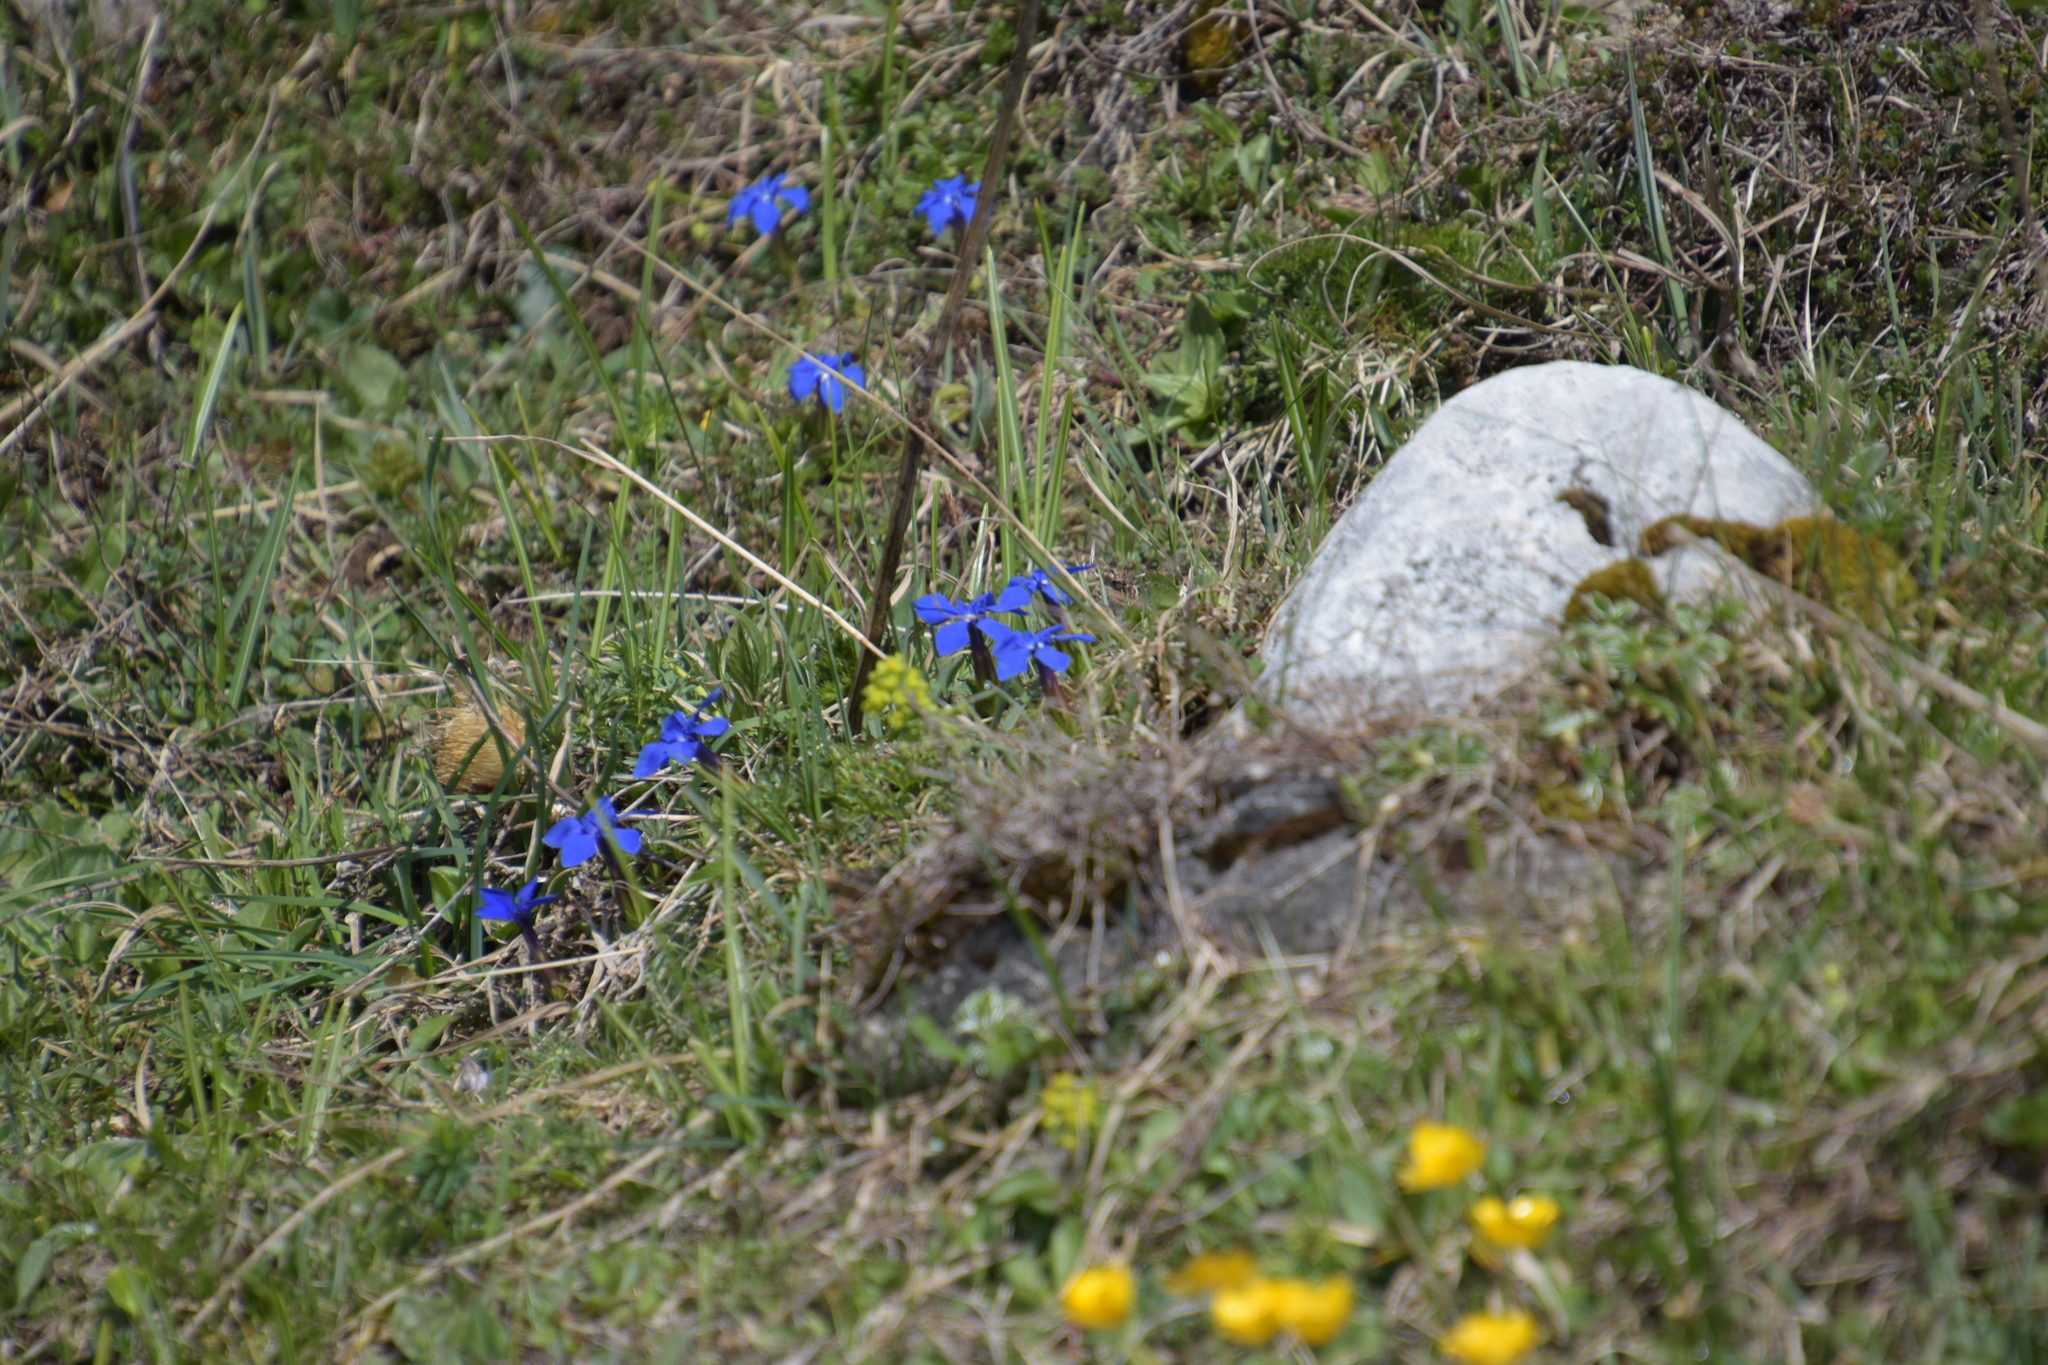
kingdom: Plantae
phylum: Tracheophyta
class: Magnoliopsida
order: Gentianales
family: Gentianaceae
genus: Gentiana
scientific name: Gentiana verna
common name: Spring gentian
